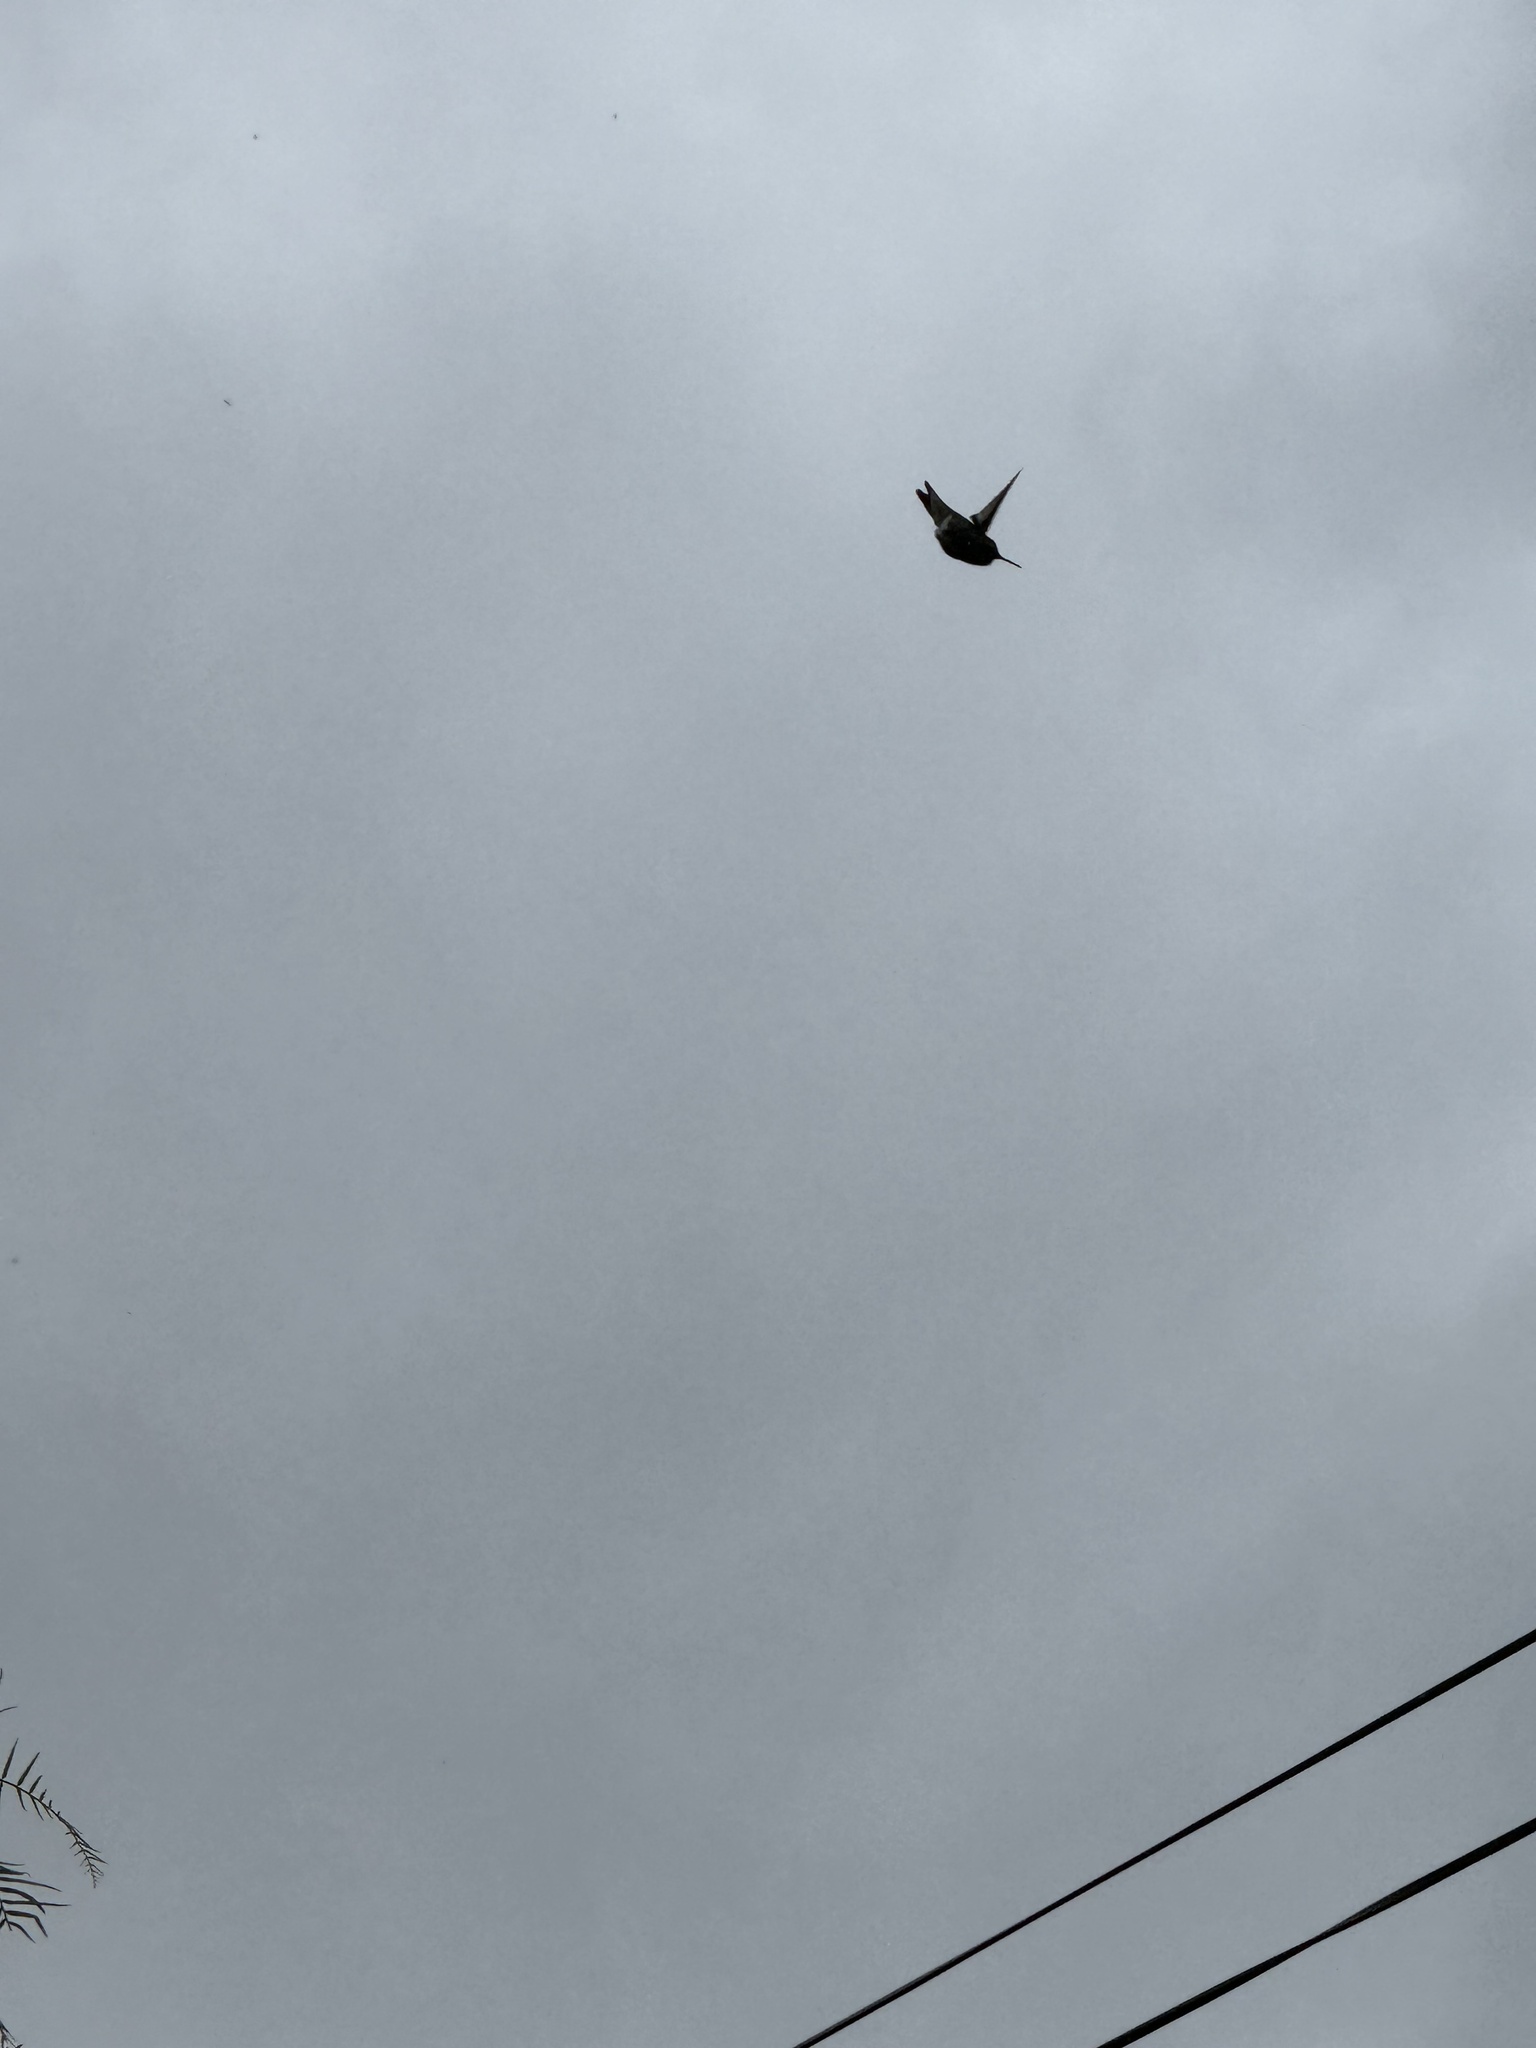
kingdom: Animalia
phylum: Chordata
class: Aves
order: Apodiformes
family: Trochilidae
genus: Calypte
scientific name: Calypte anna
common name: Anna's hummingbird
